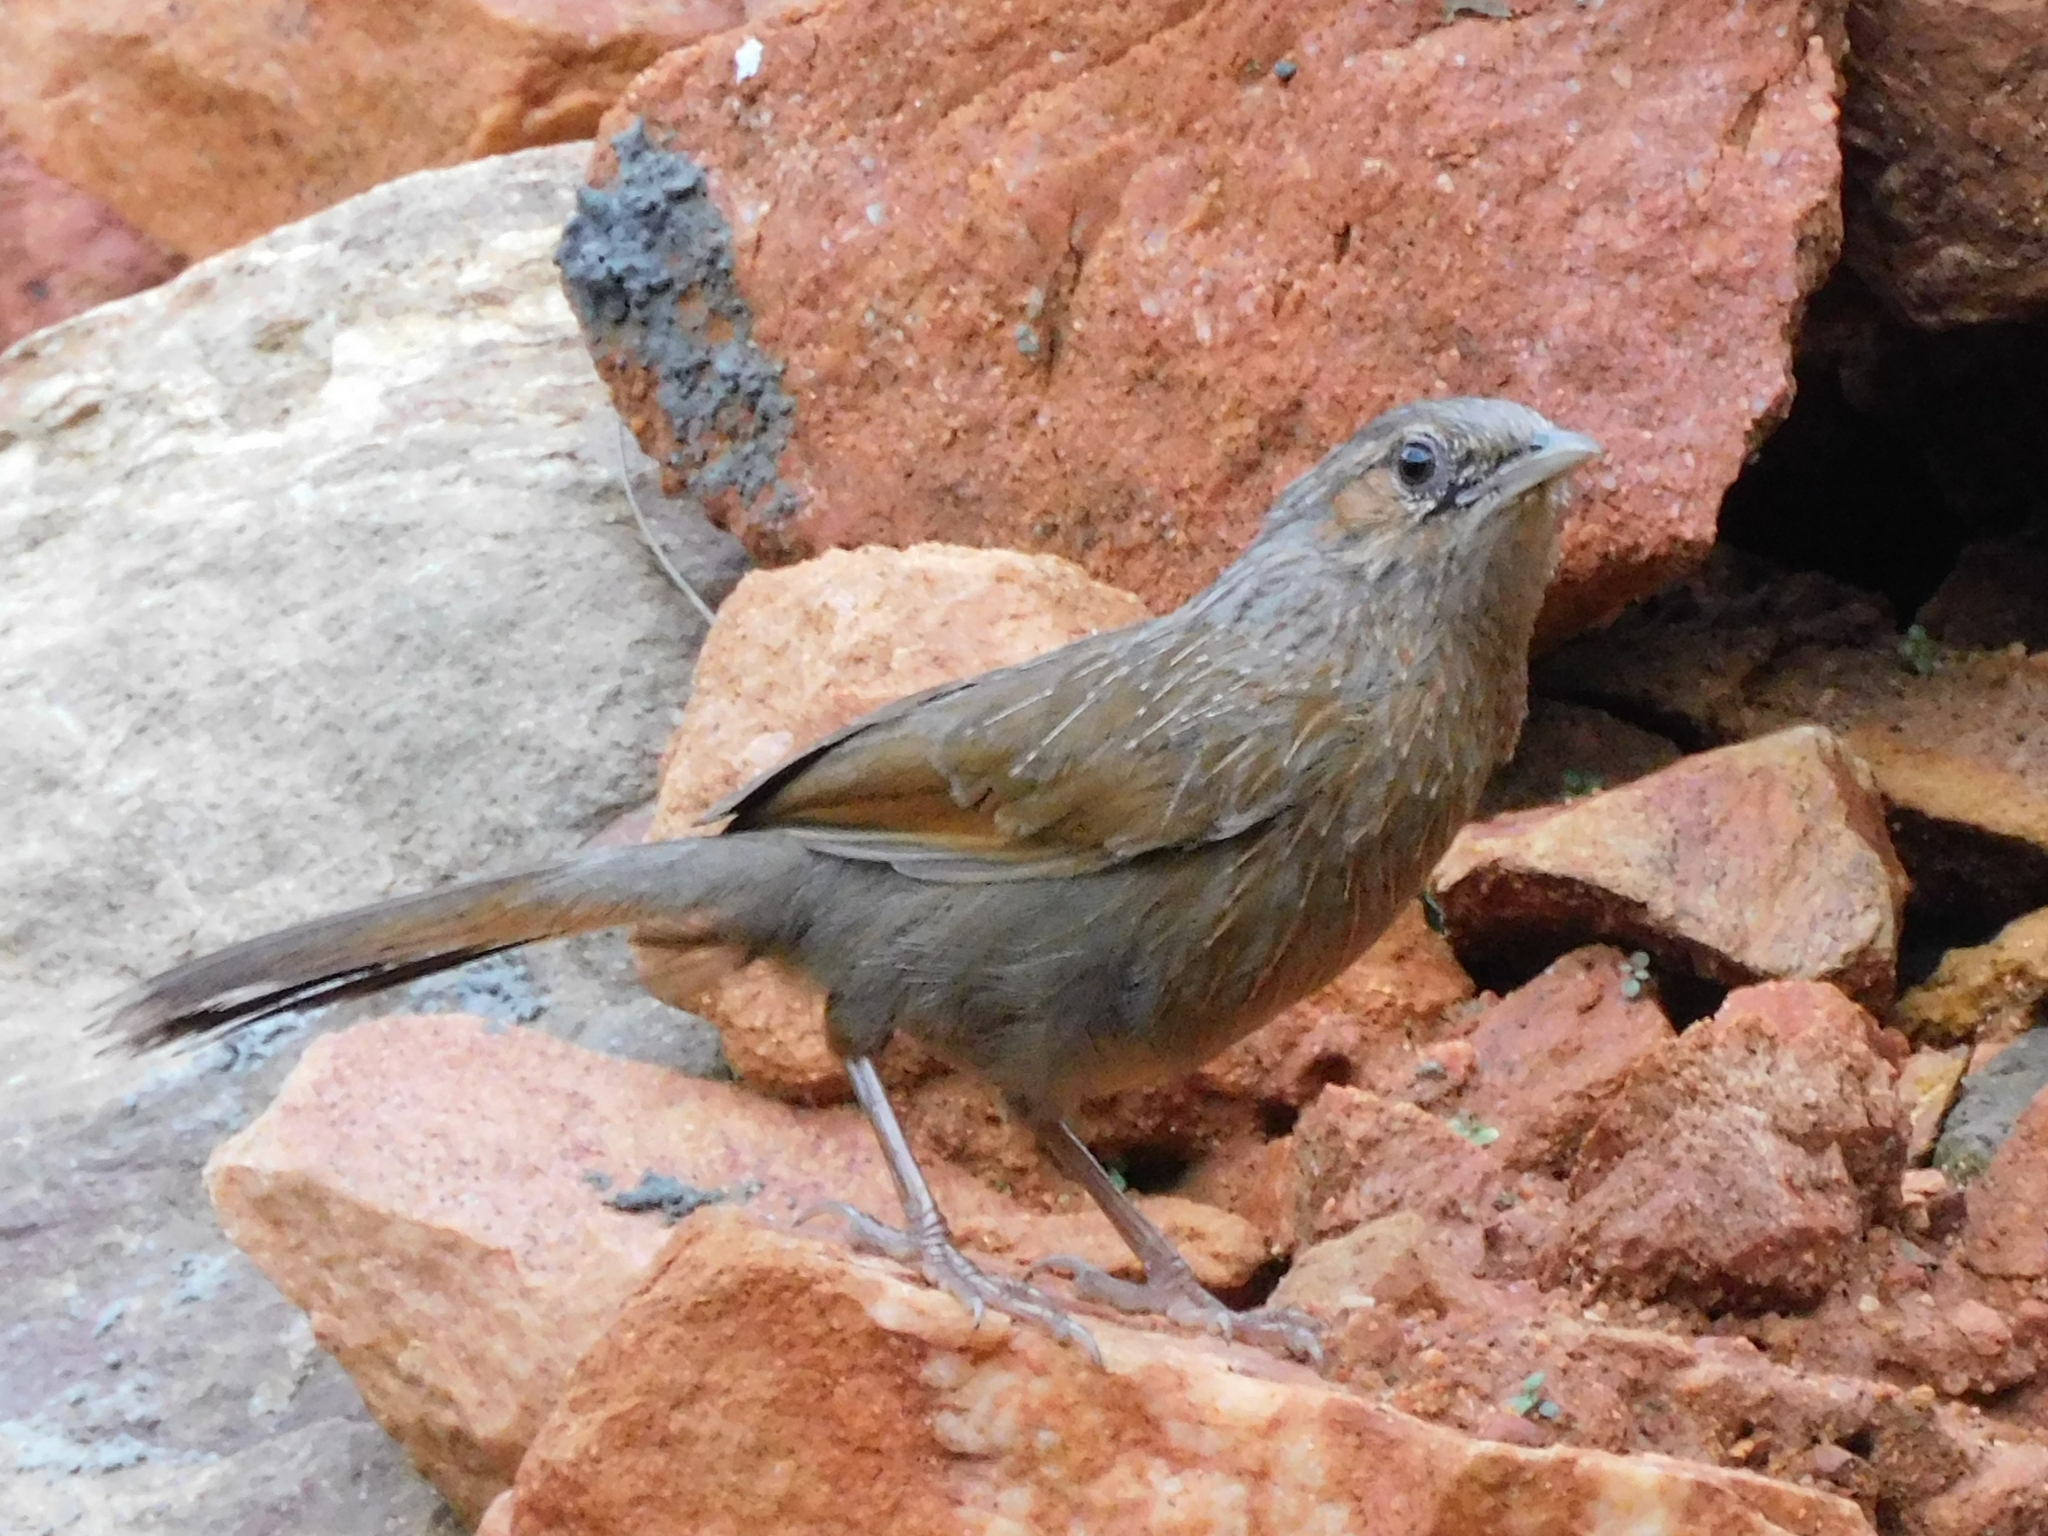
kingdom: Animalia
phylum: Chordata
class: Aves
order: Passeriformes
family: Leiothrichidae
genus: Trochalopteron
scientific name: Trochalopteron lineatum
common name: Streaked laughingthrush
